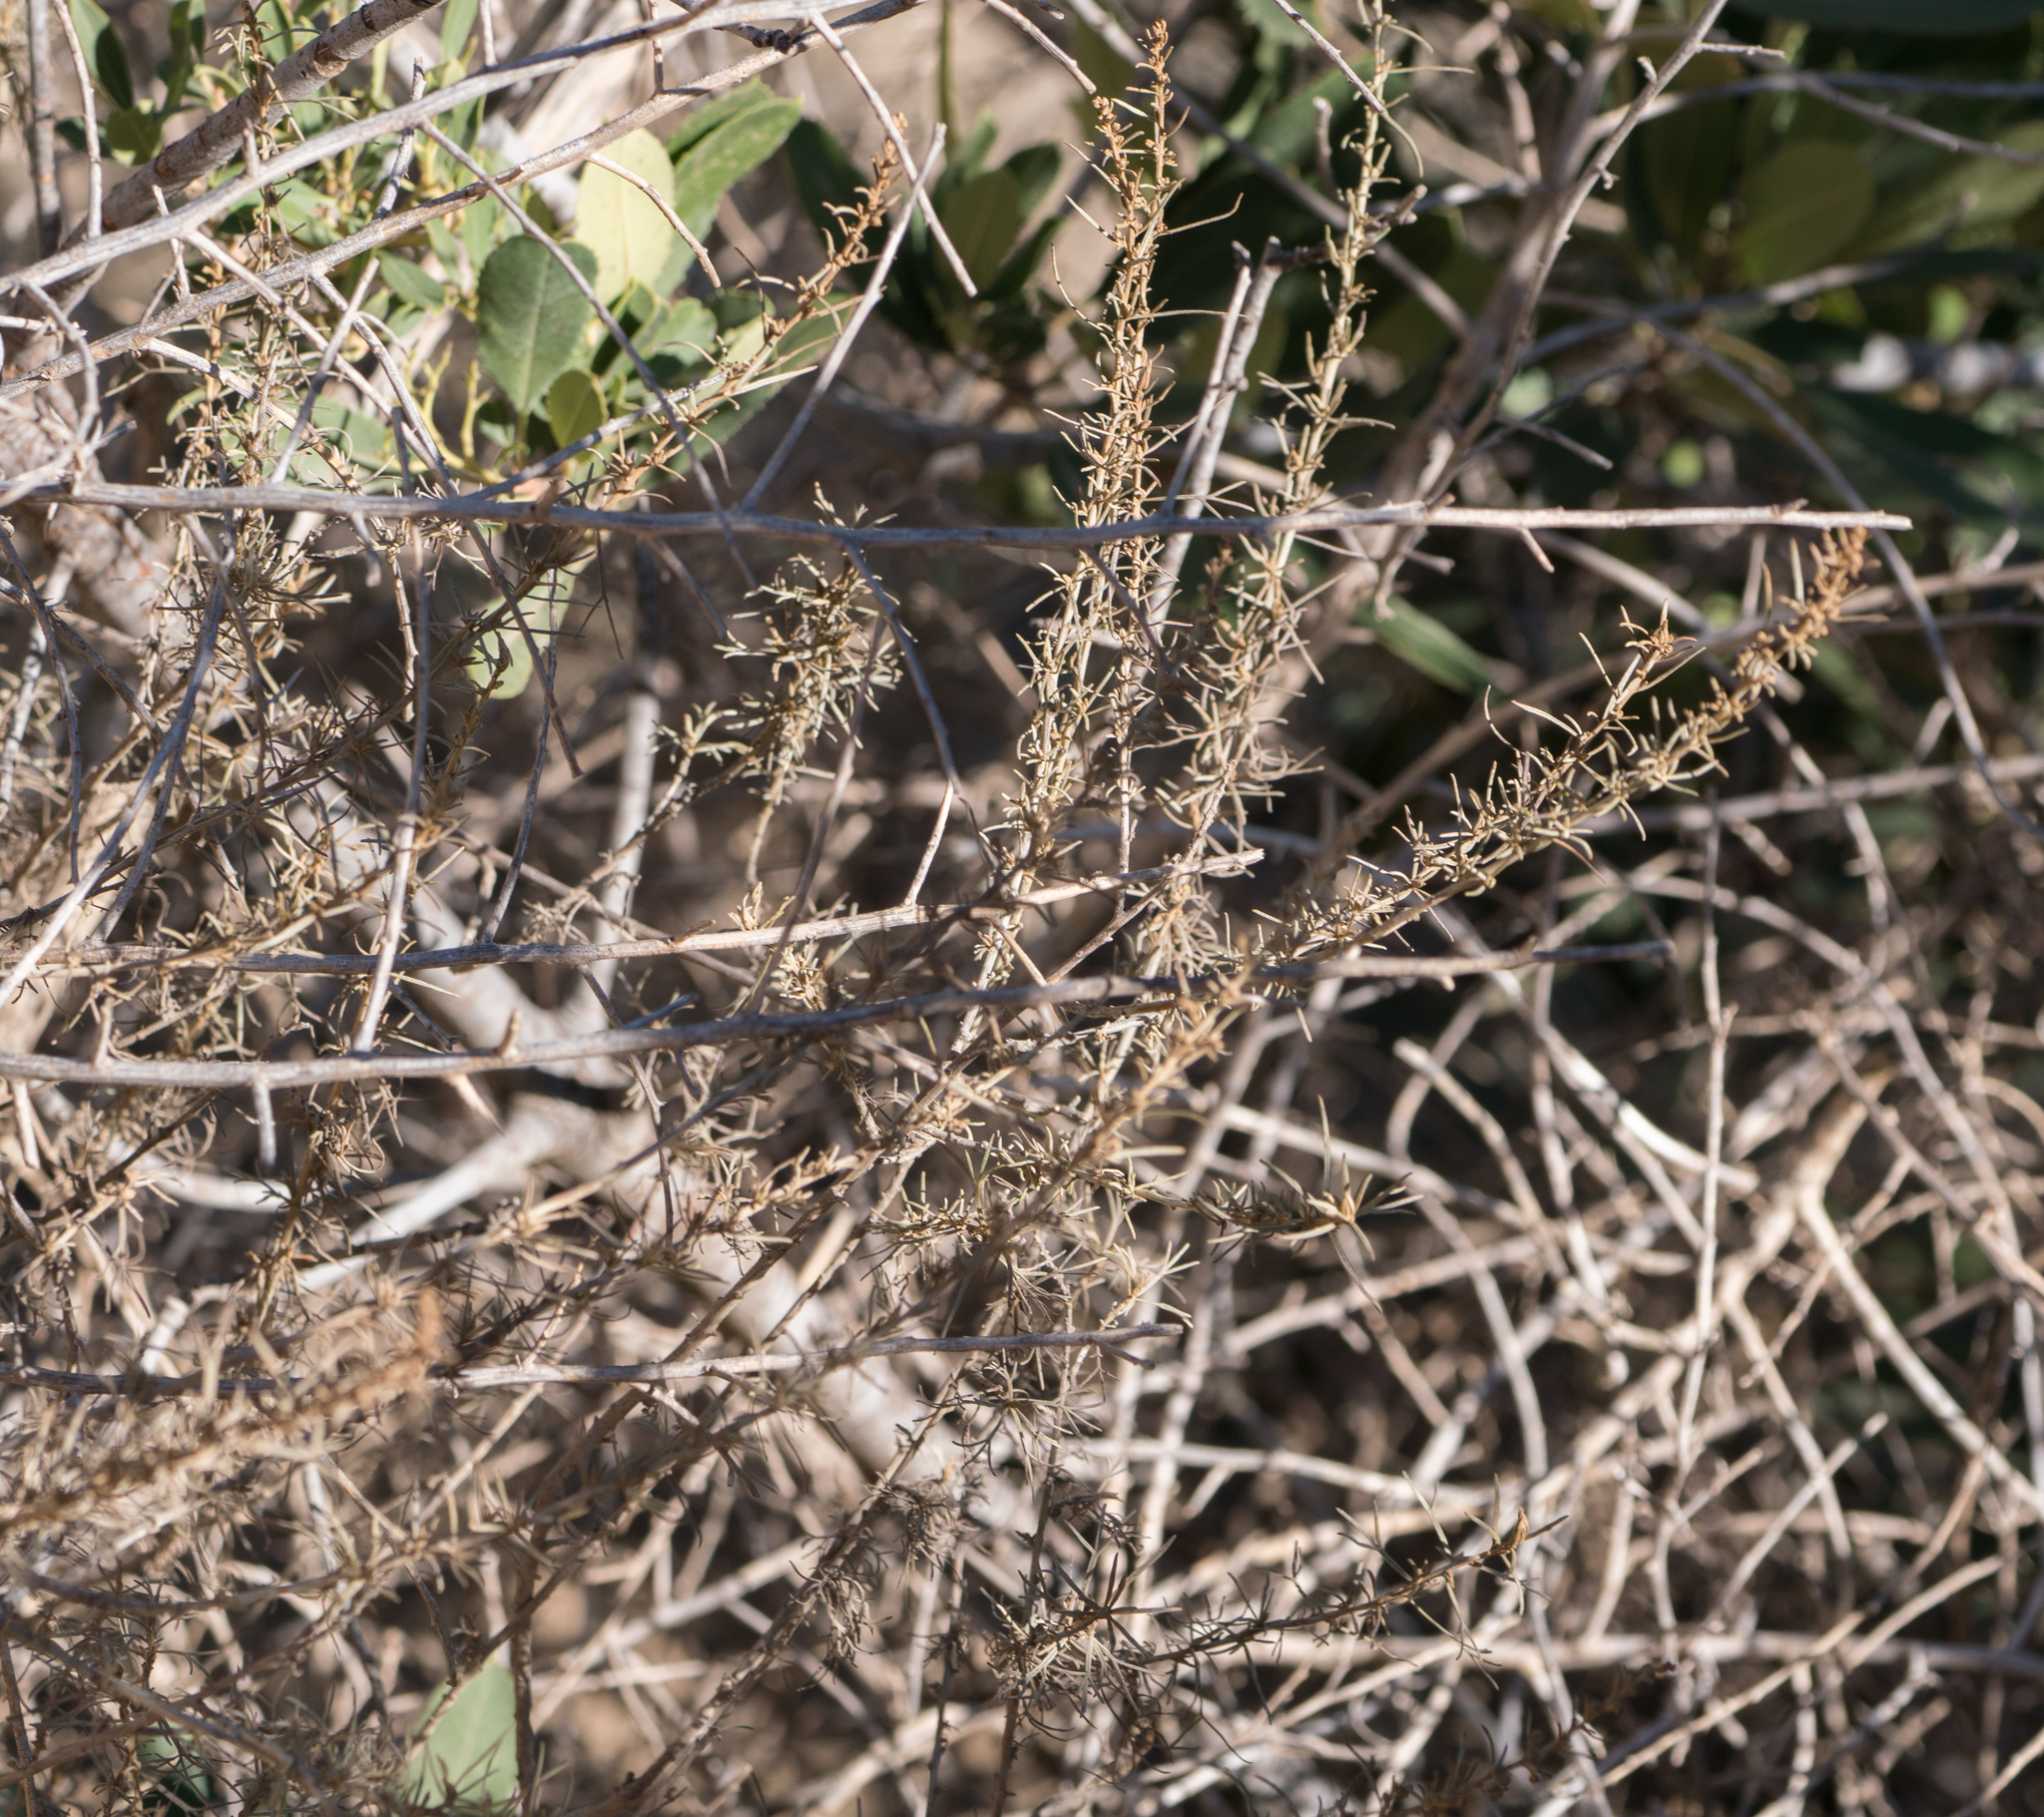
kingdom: Plantae
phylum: Tracheophyta
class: Magnoliopsida
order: Asterales
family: Asteraceae
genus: Artemisia
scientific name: Artemisia californica
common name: California sagebrush
